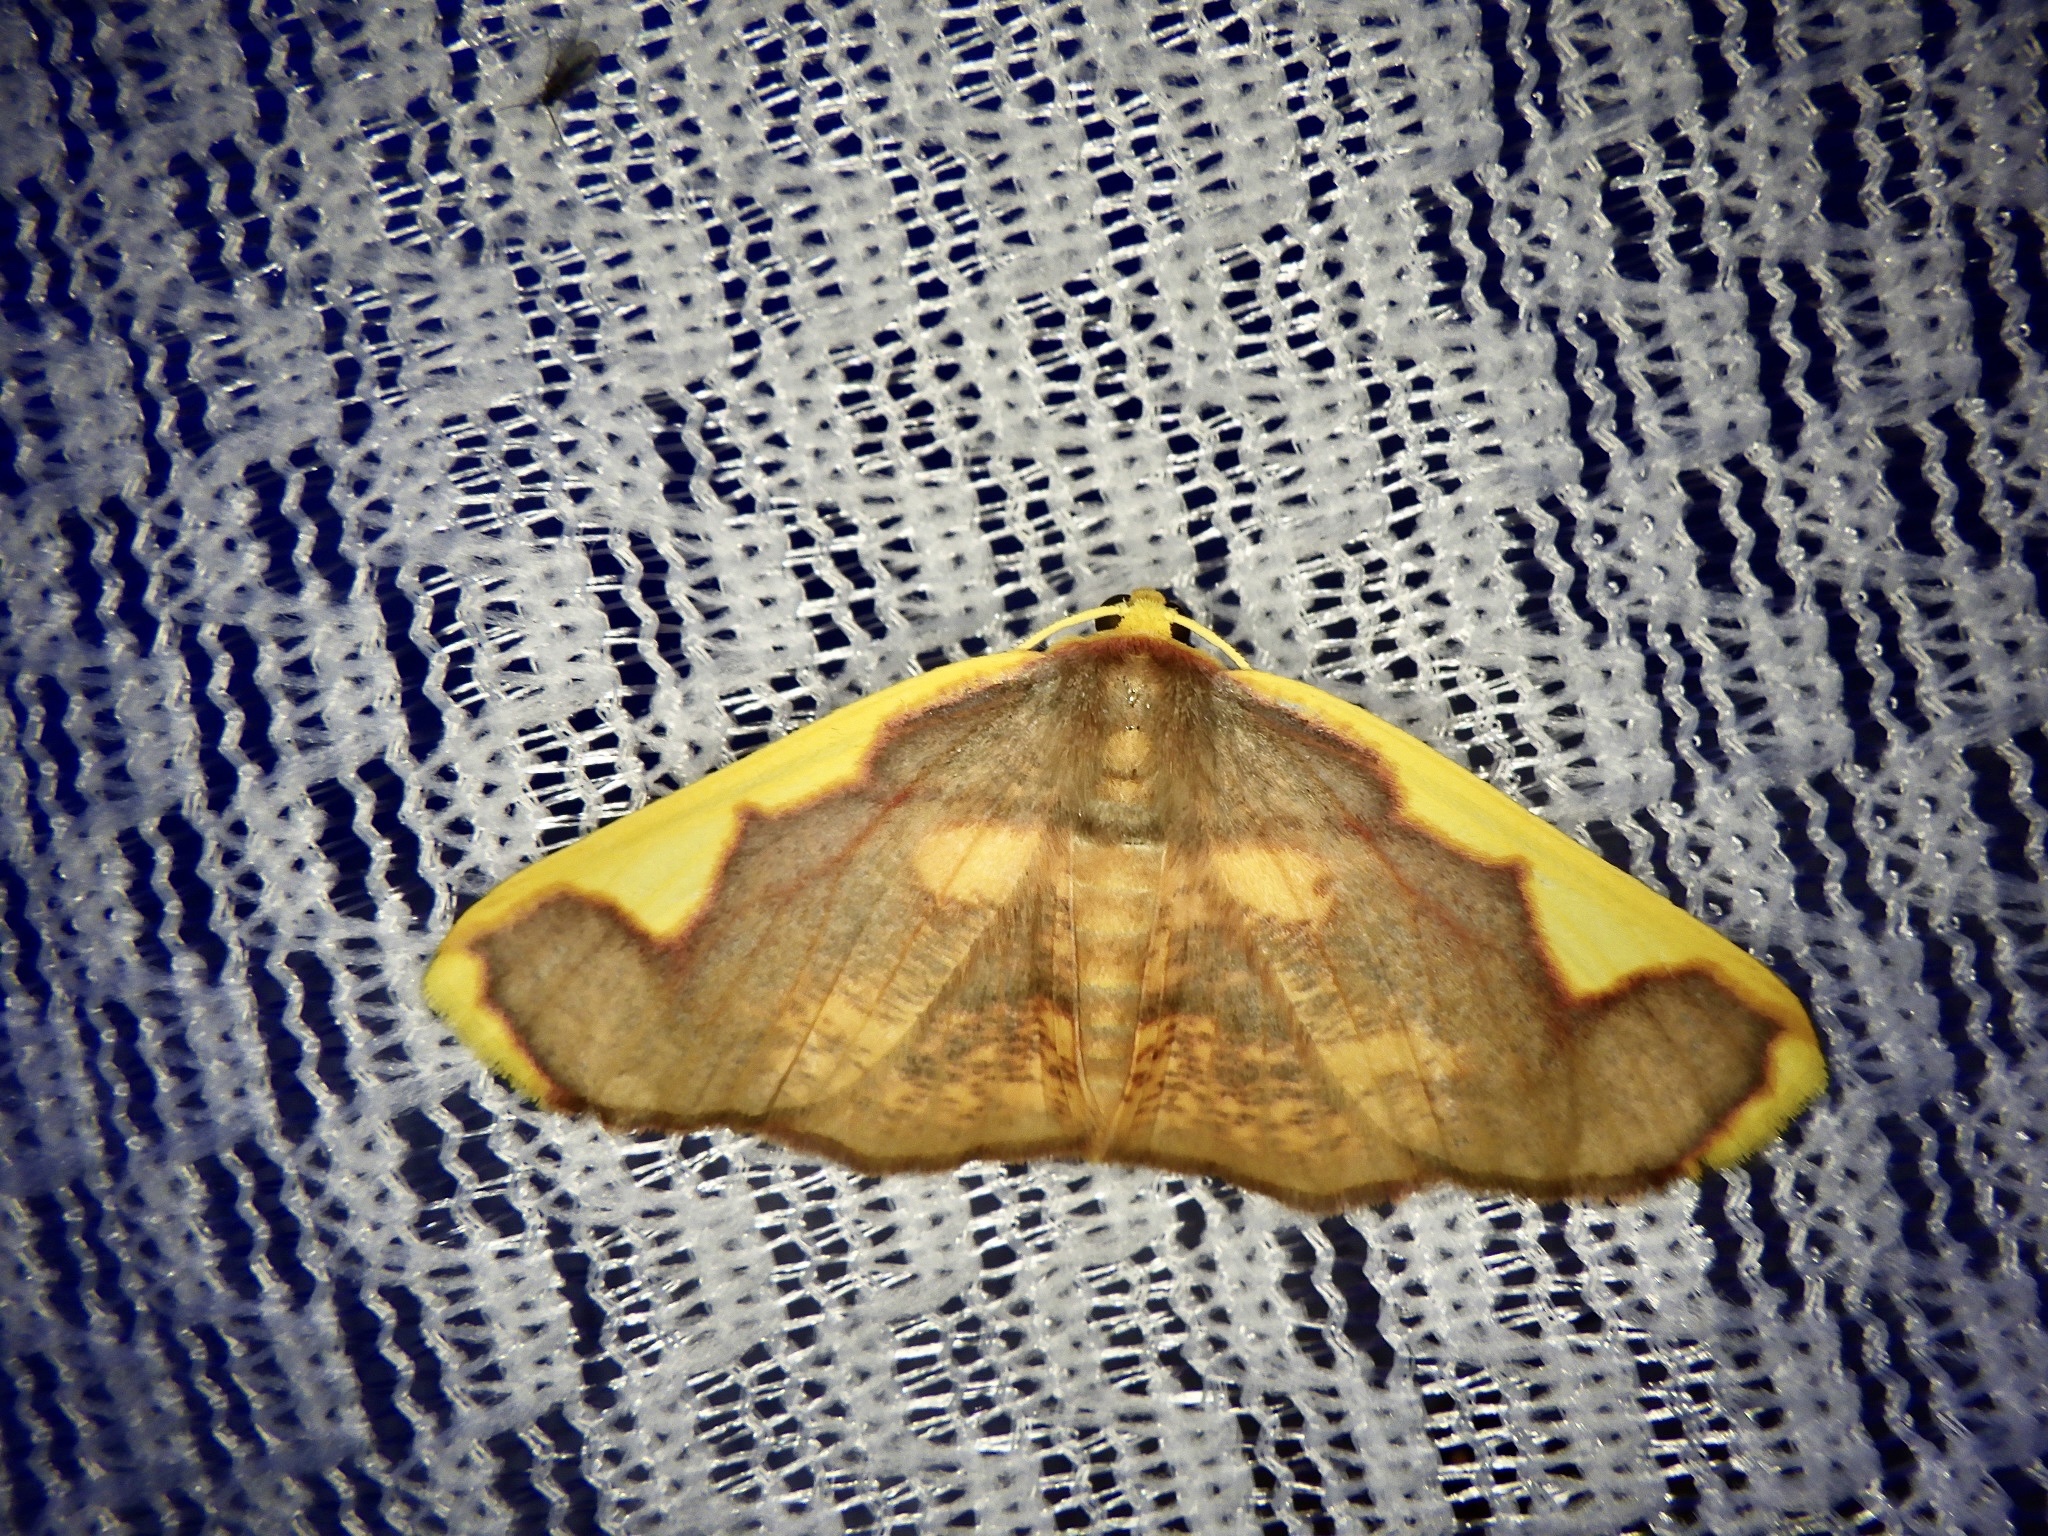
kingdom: Animalia
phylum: Arthropoda
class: Insecta
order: Lepidoptera
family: Geometridae
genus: Nothomiza
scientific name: Nothomiza formosa
